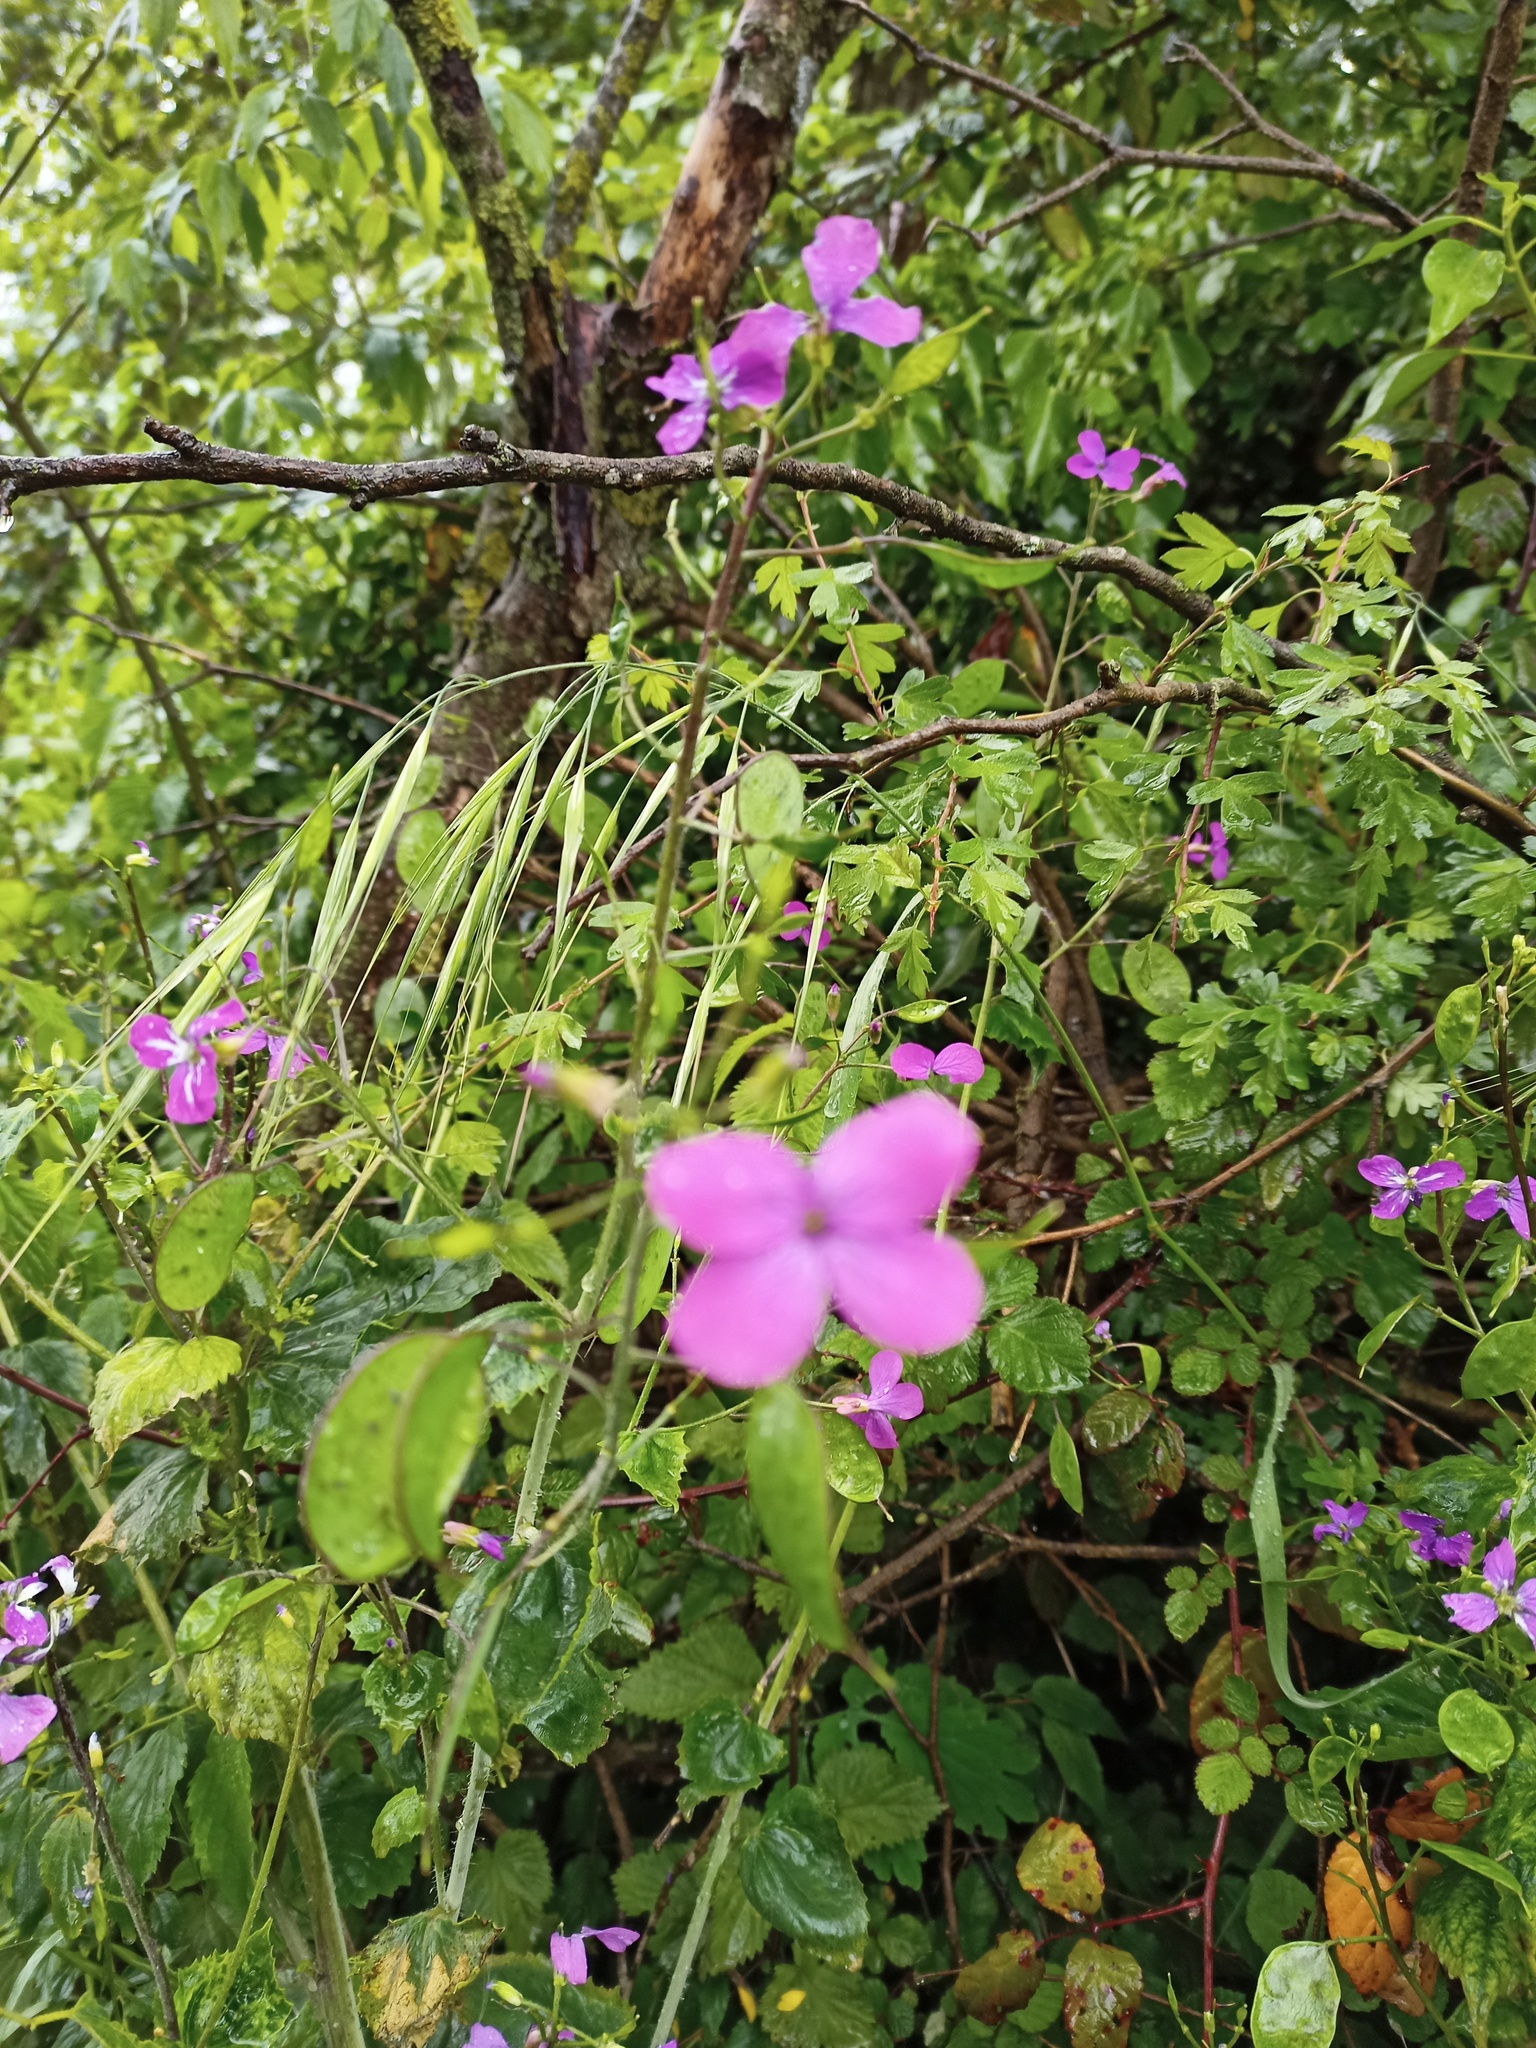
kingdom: Plantae
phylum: Tracheophyta
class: Magnoliopsida
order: Brassicales
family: Brassicaceae
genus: Lunaria
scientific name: Lunaria annua
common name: Honesty
